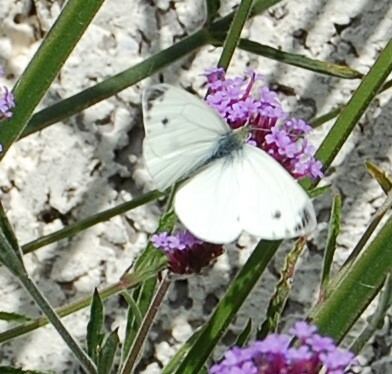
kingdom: Animalia
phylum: Arthropoda
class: Insecta
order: Lepidoptera
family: Pieridae
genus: Pieris
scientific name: Pieris napi
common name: Green-veined white
